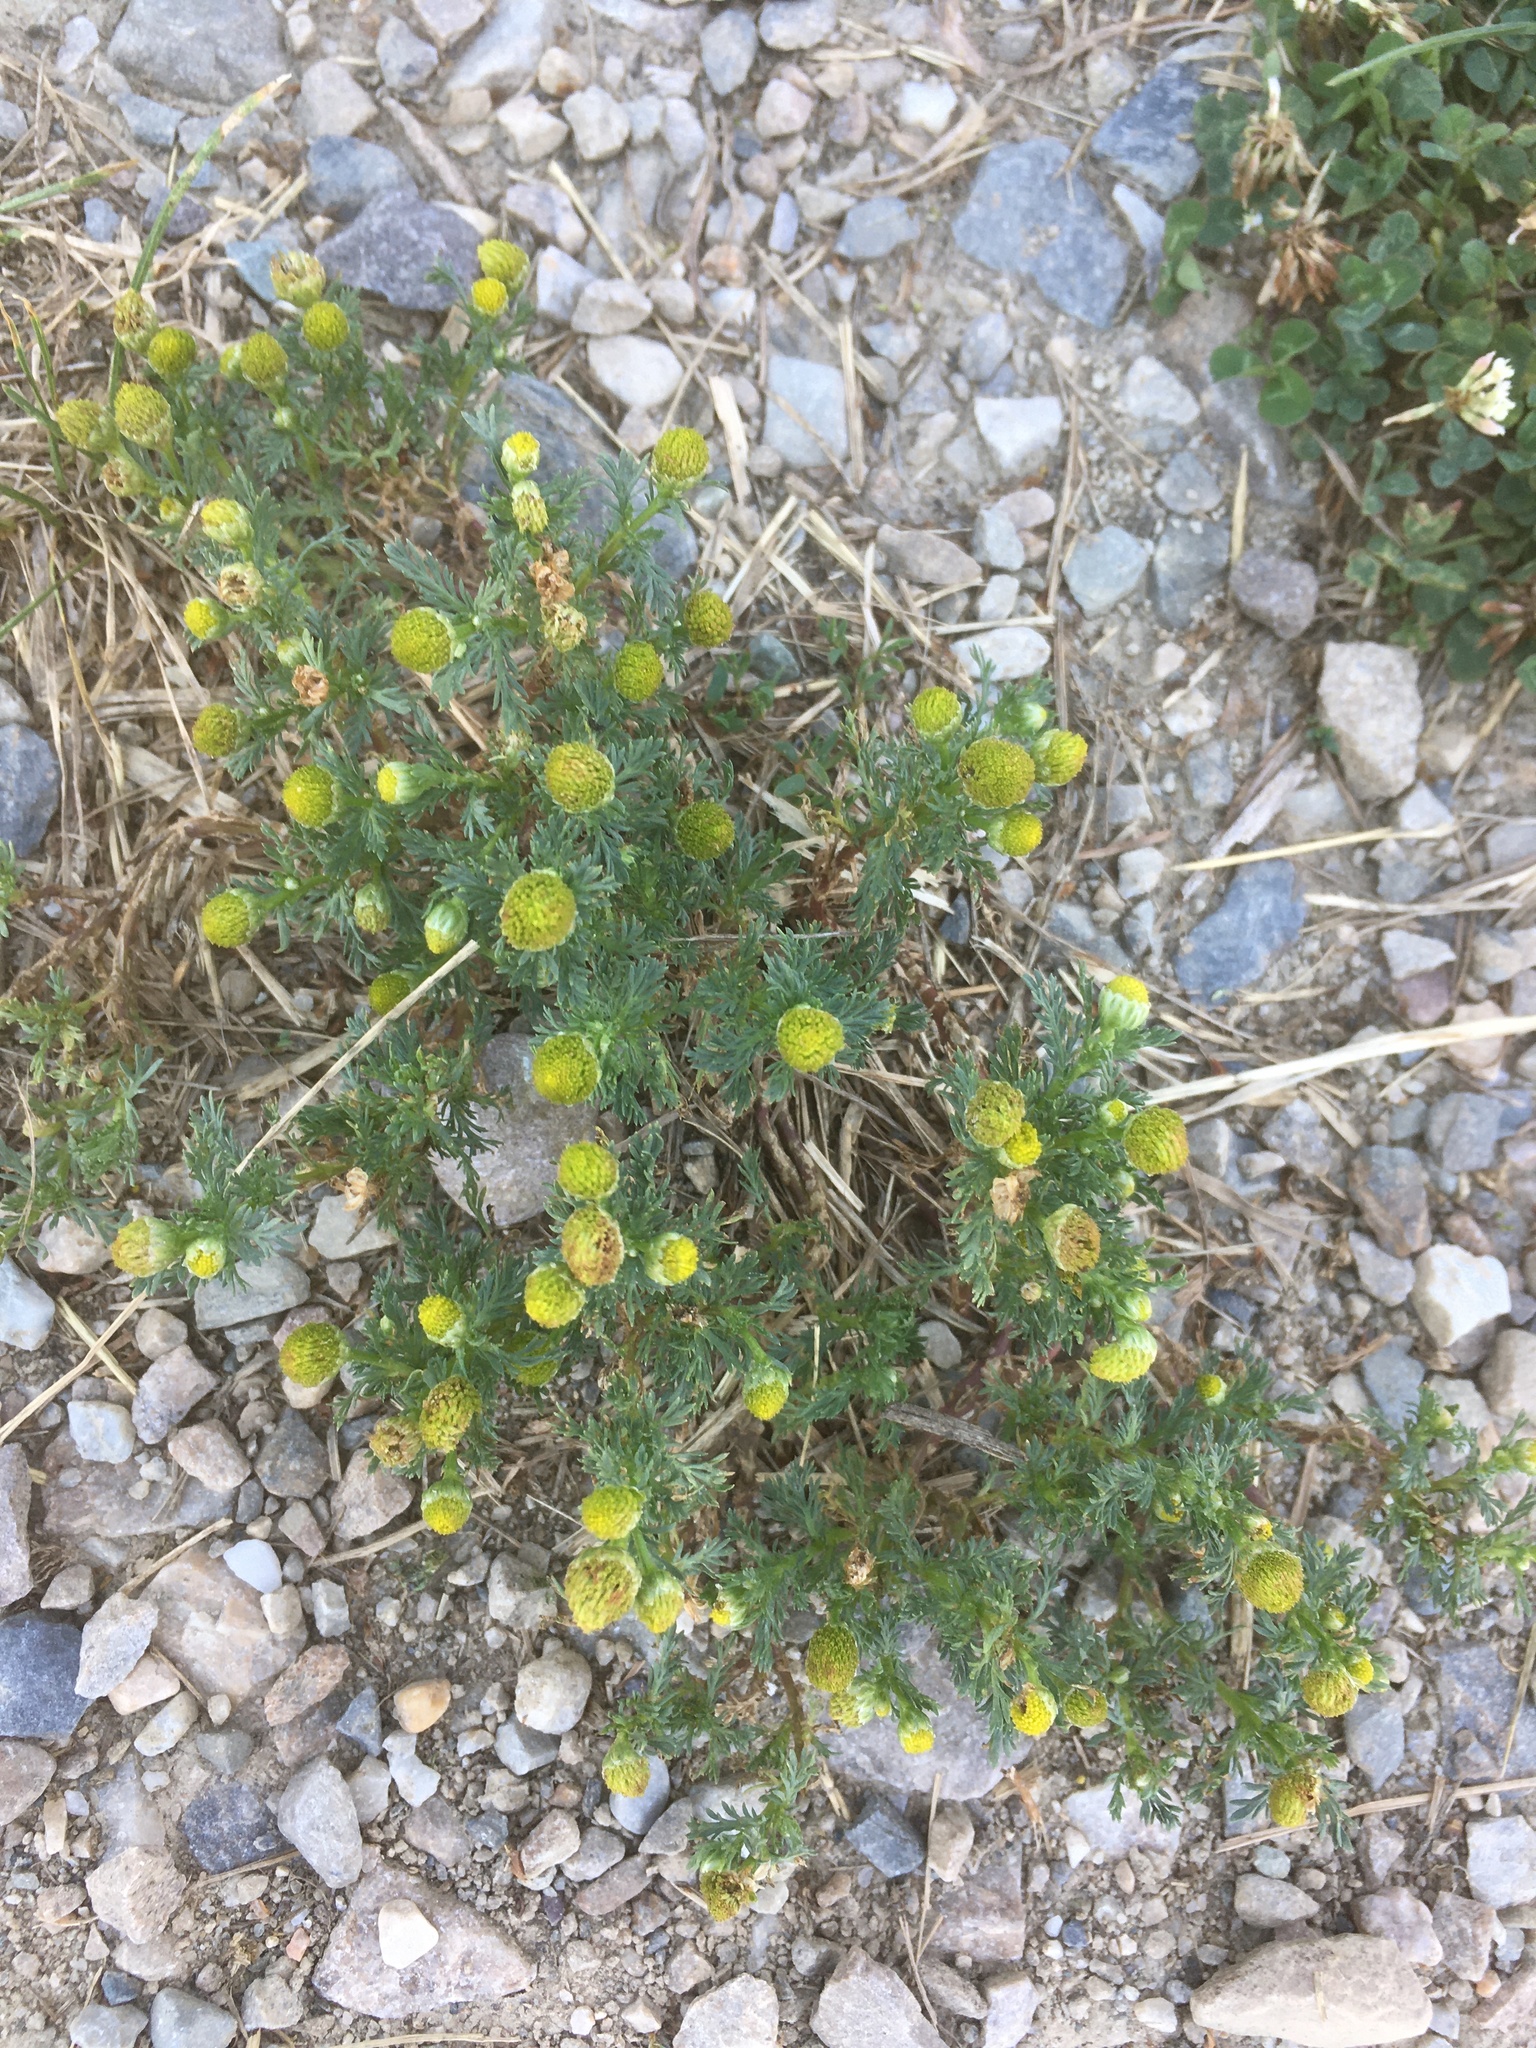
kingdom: Plantae
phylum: Tracheophyta
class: Magnoliopsida
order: Asterales
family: Asteraceae
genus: Matricaria
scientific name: Matricaria discoidea
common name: Disc mayweed
